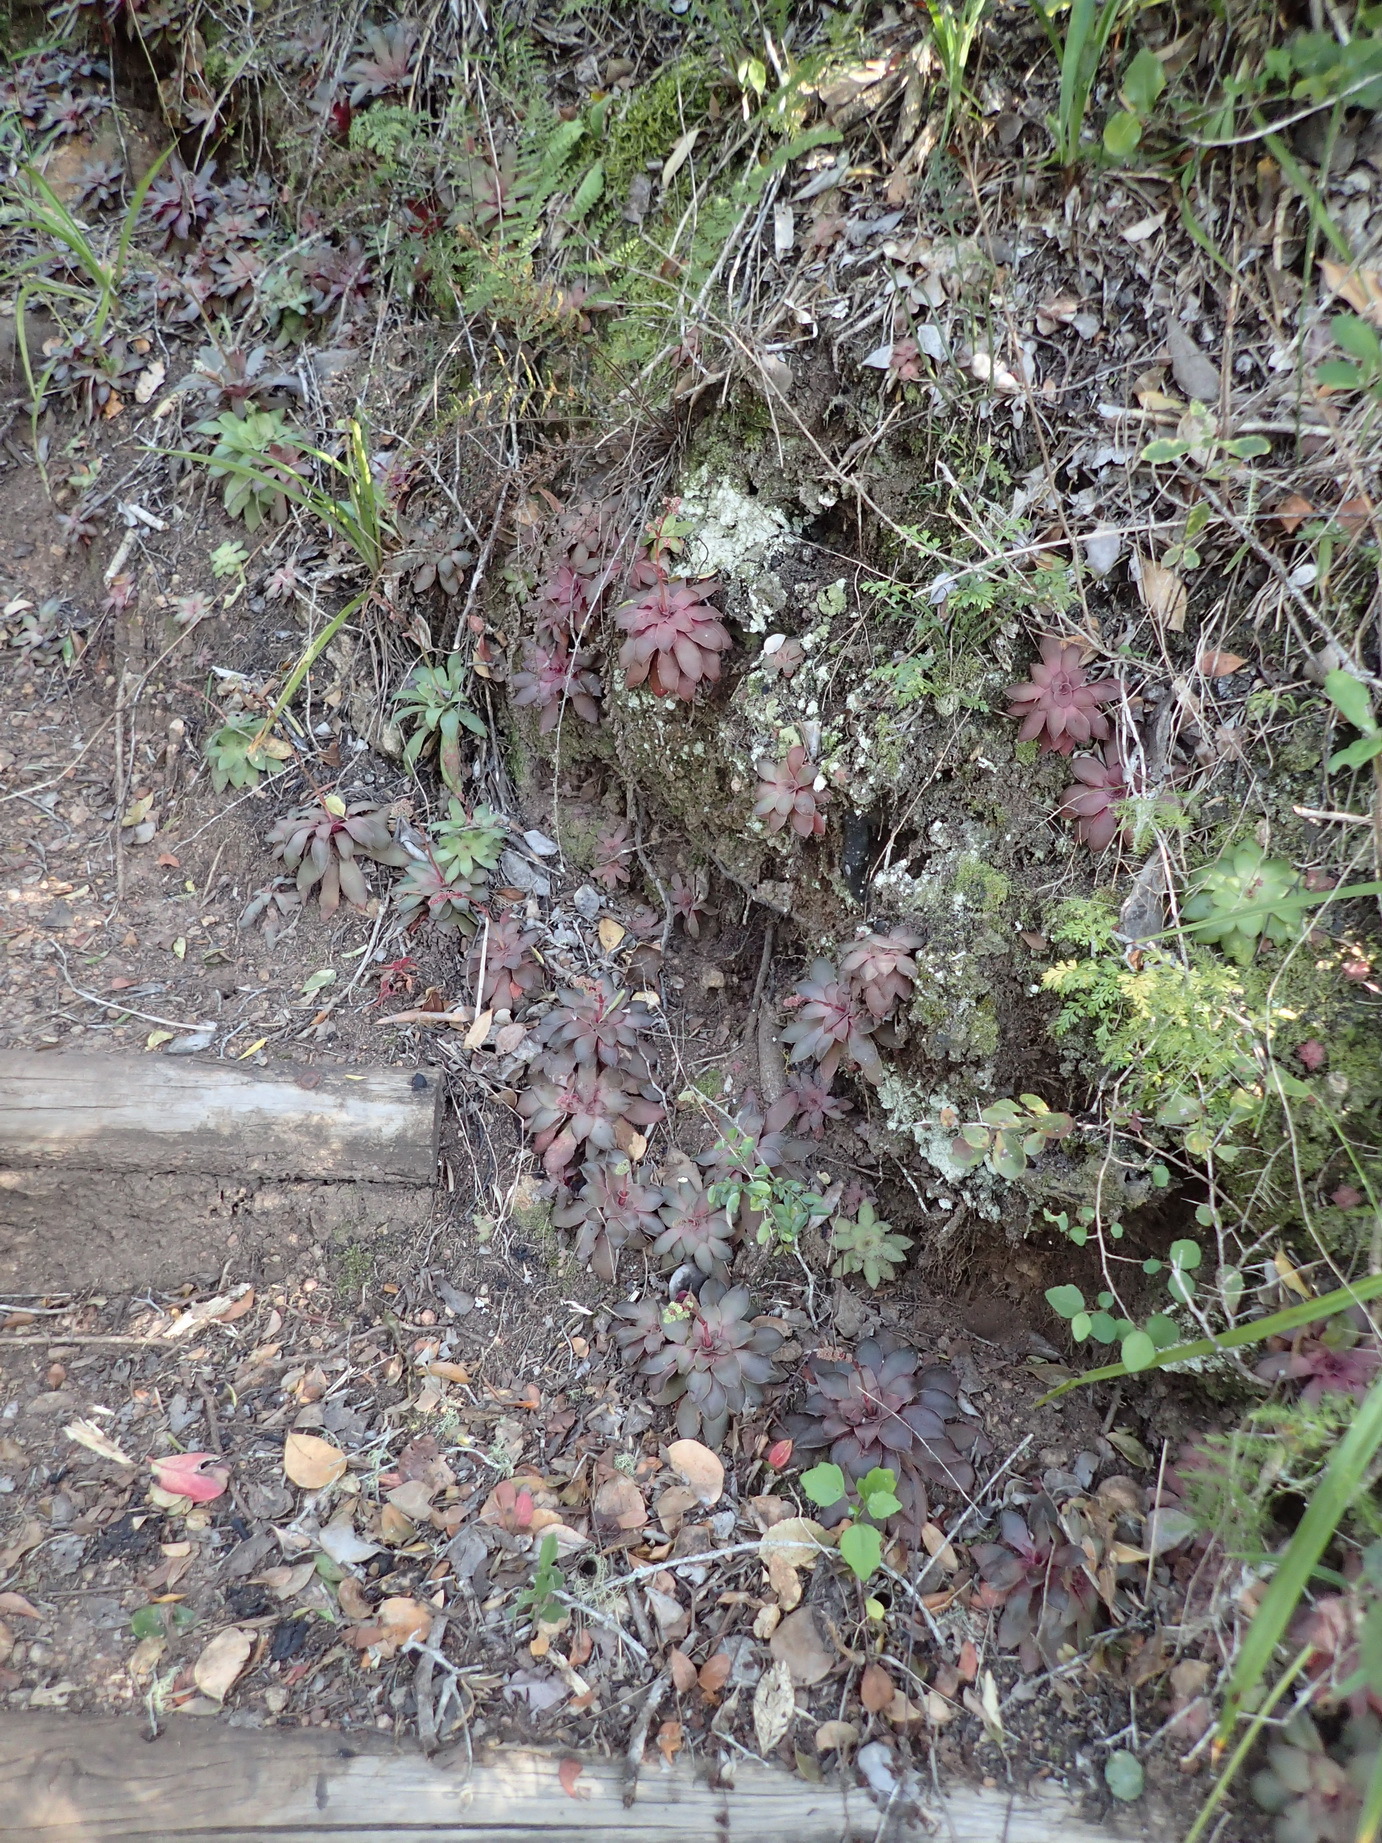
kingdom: Plantae
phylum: Tracheophyta
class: Magnoliopsida
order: Saxifragales
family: Crassulaceae
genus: Crassula
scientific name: Crassula orbicularis
